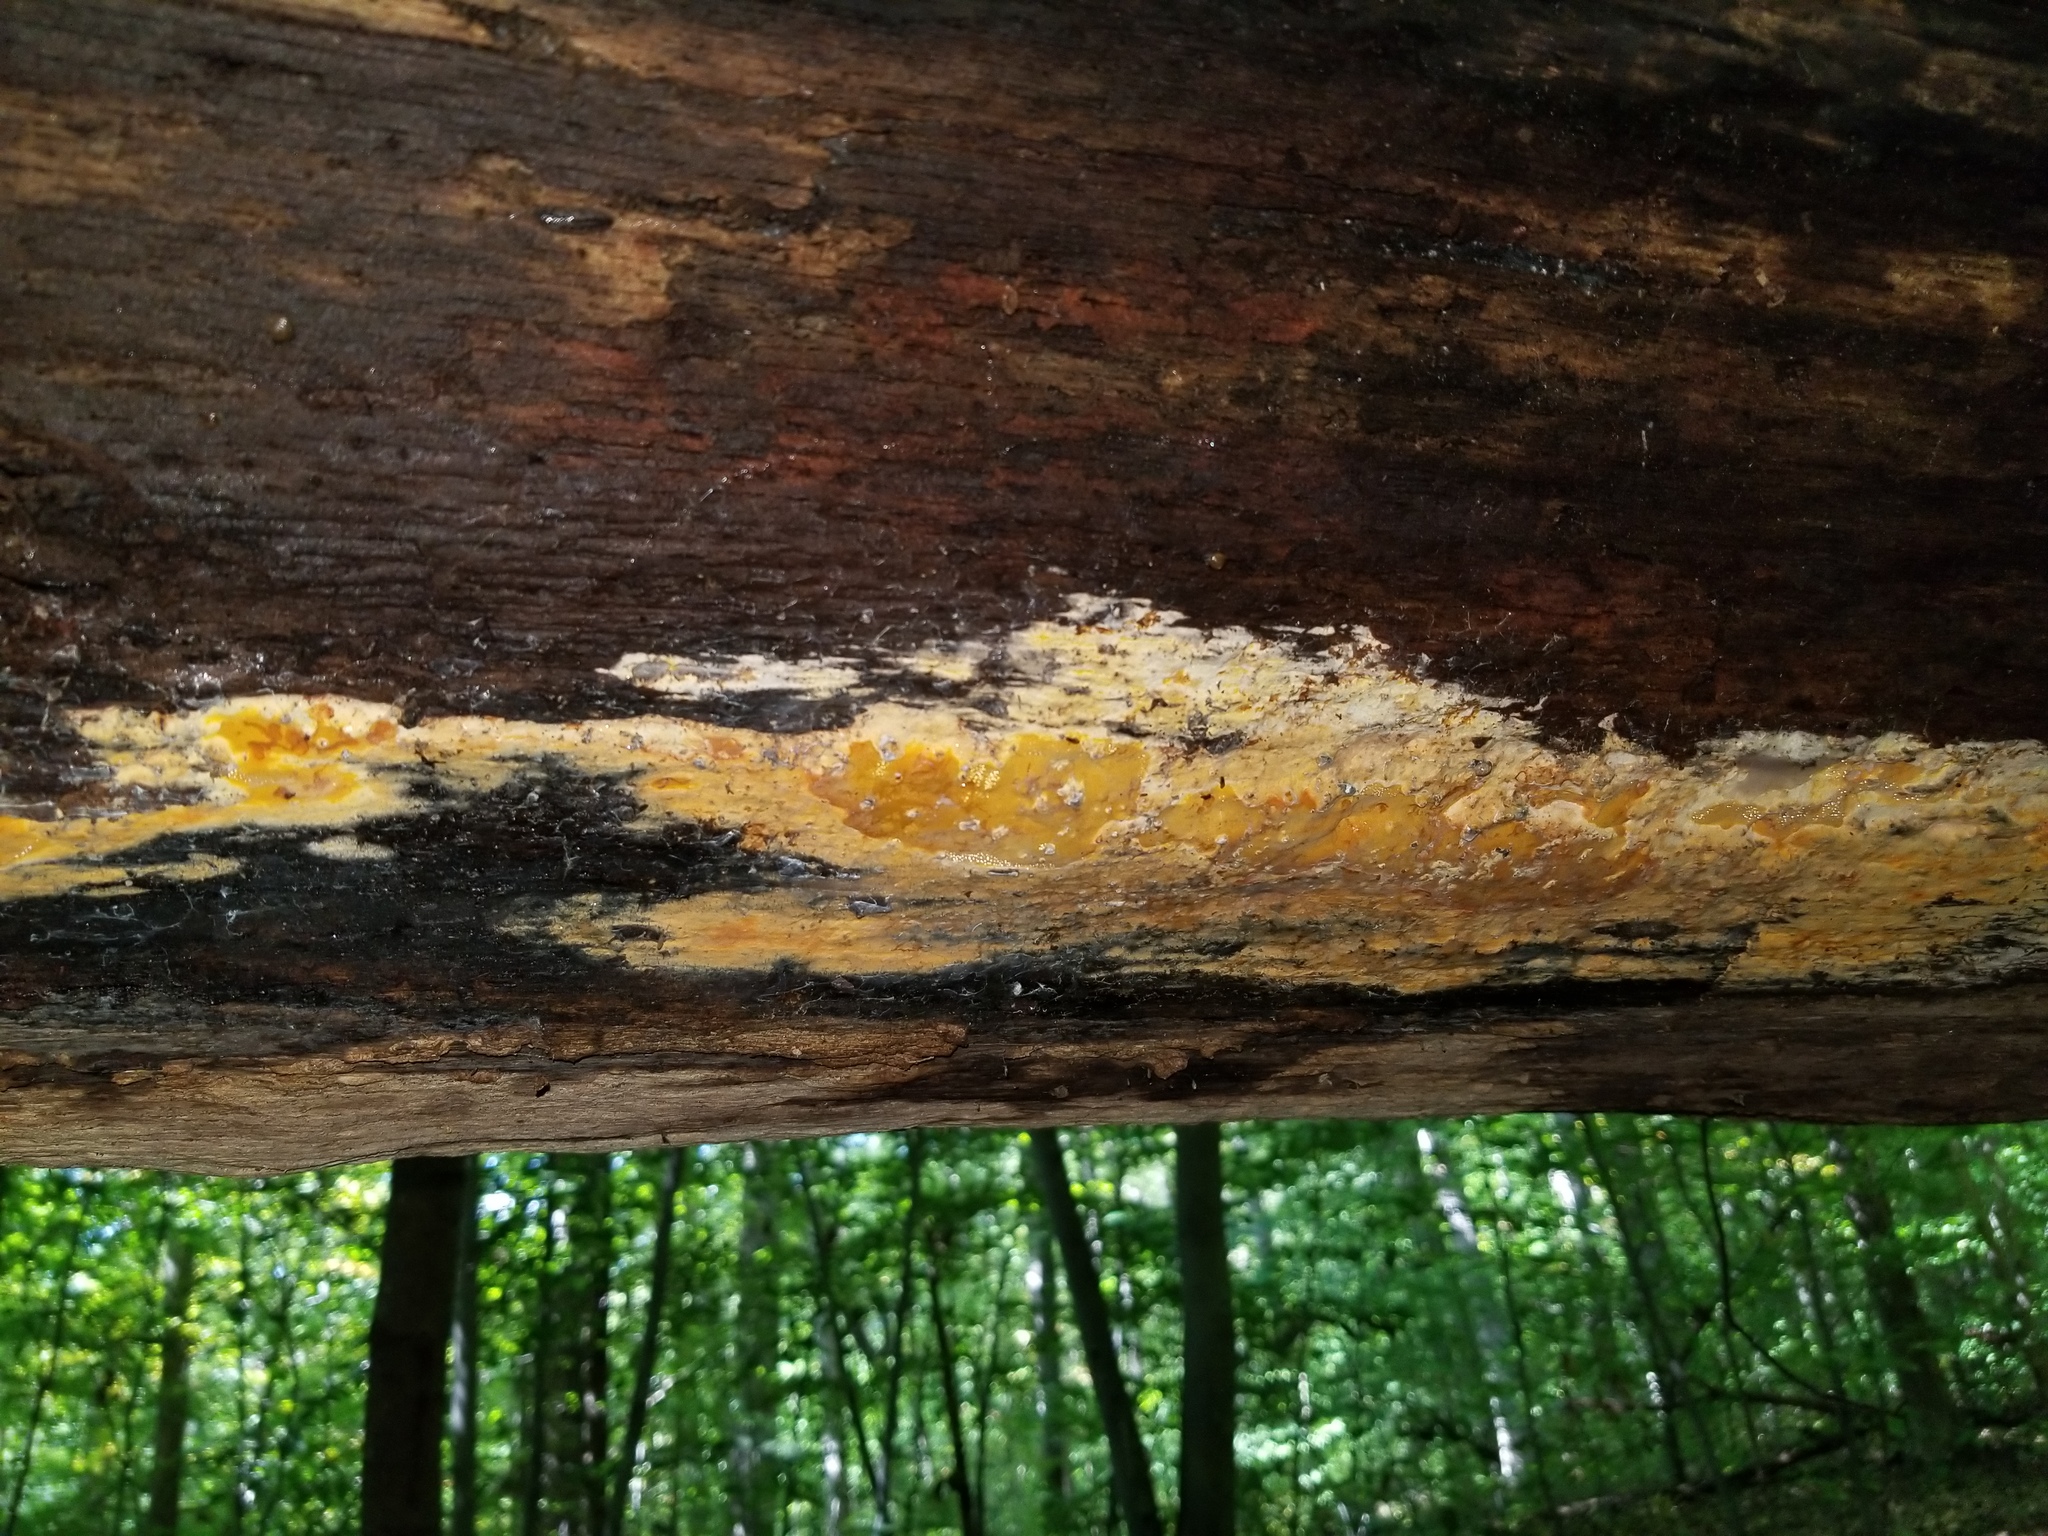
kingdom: Fungi
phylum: Basidiomycota
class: Agaricomycetes
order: Polyporales
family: Irpicaceae
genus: Ceriporia
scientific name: Ceriporia spissa
